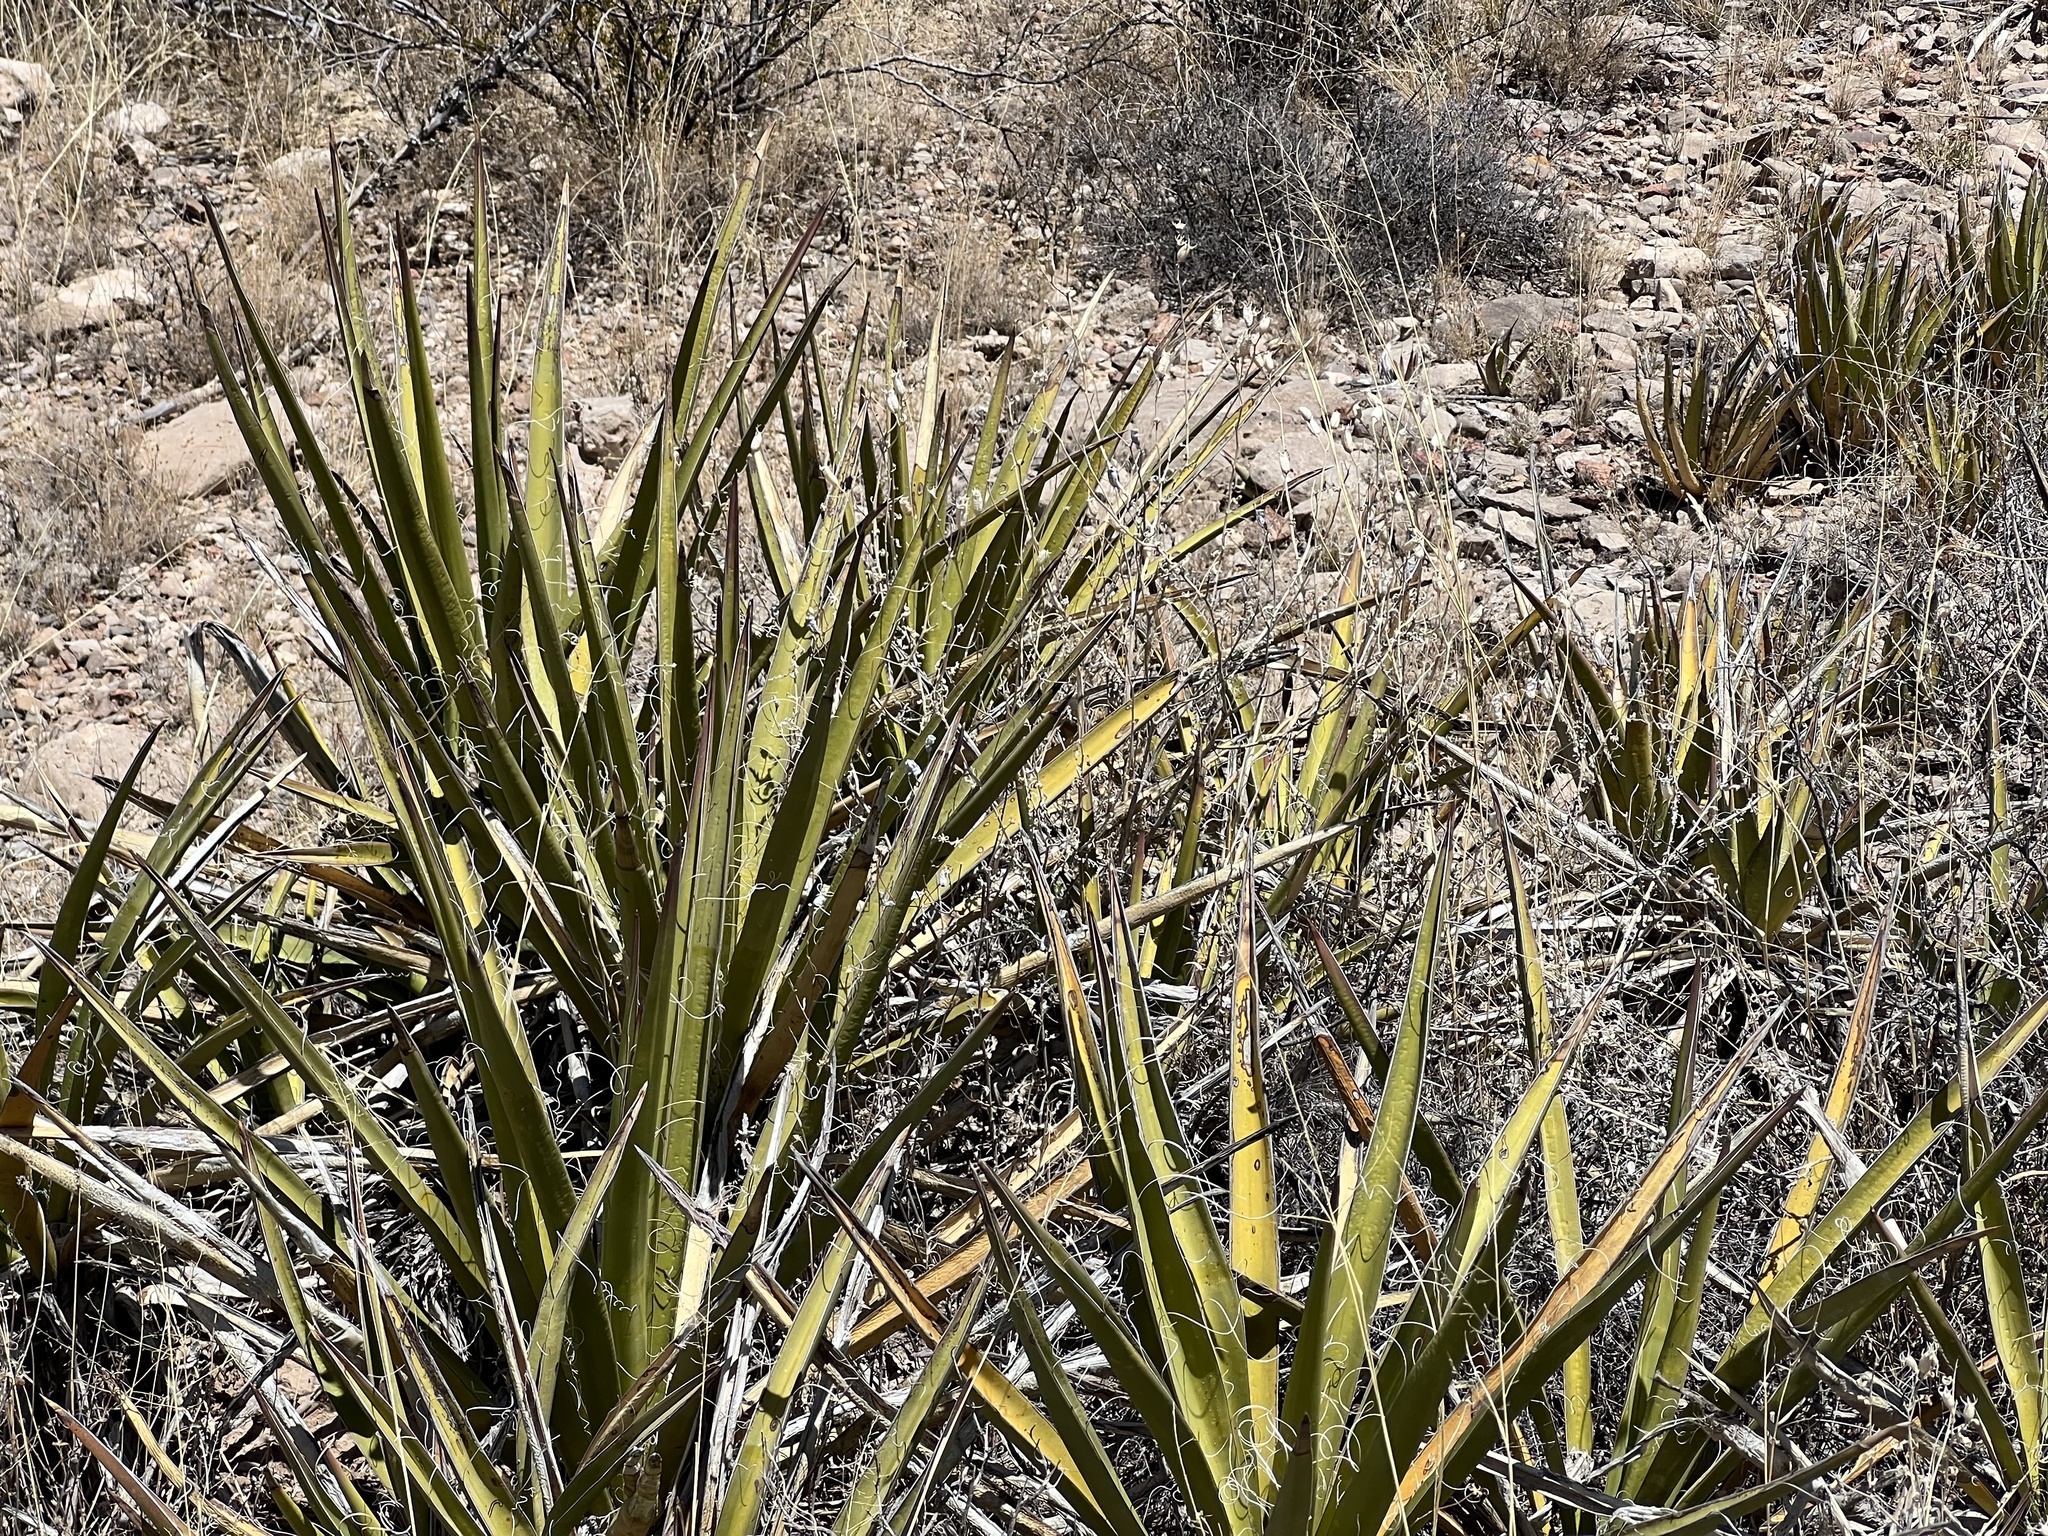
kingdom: Plantae
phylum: Tracheophyta
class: Liliopsida
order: Asparagales
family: Asparagaceae
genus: Yucca
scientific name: Yucca baccata
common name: Banana yucca
